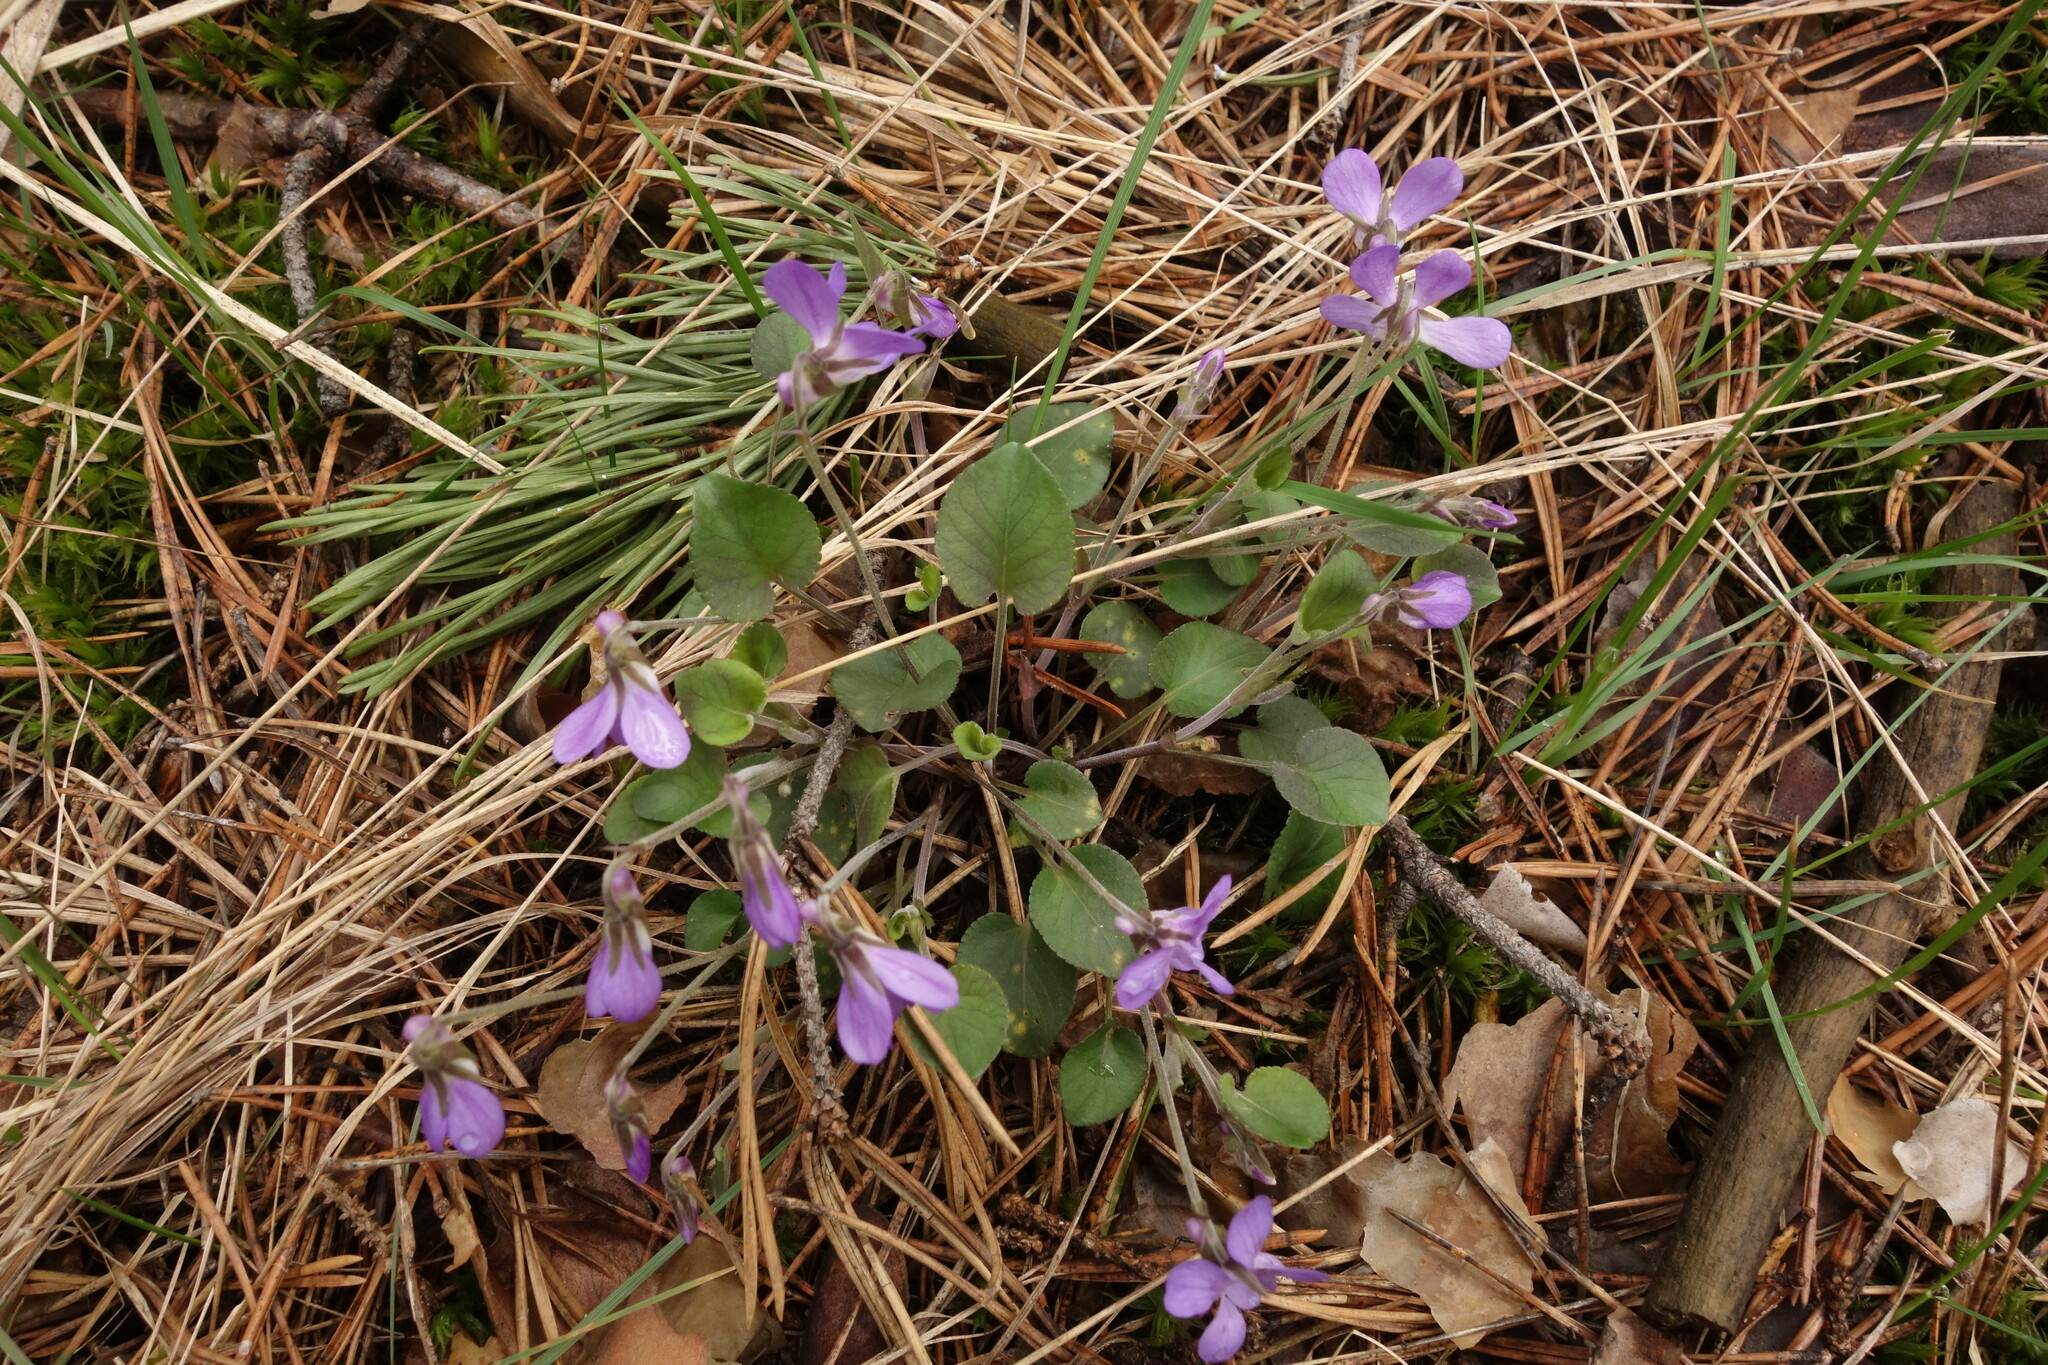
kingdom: Plantae
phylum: Tracheophyta
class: Magnoliopsida
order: Malpighiales
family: Violaceae
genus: Viola
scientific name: Viola rupestris
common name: Teesdale violet
